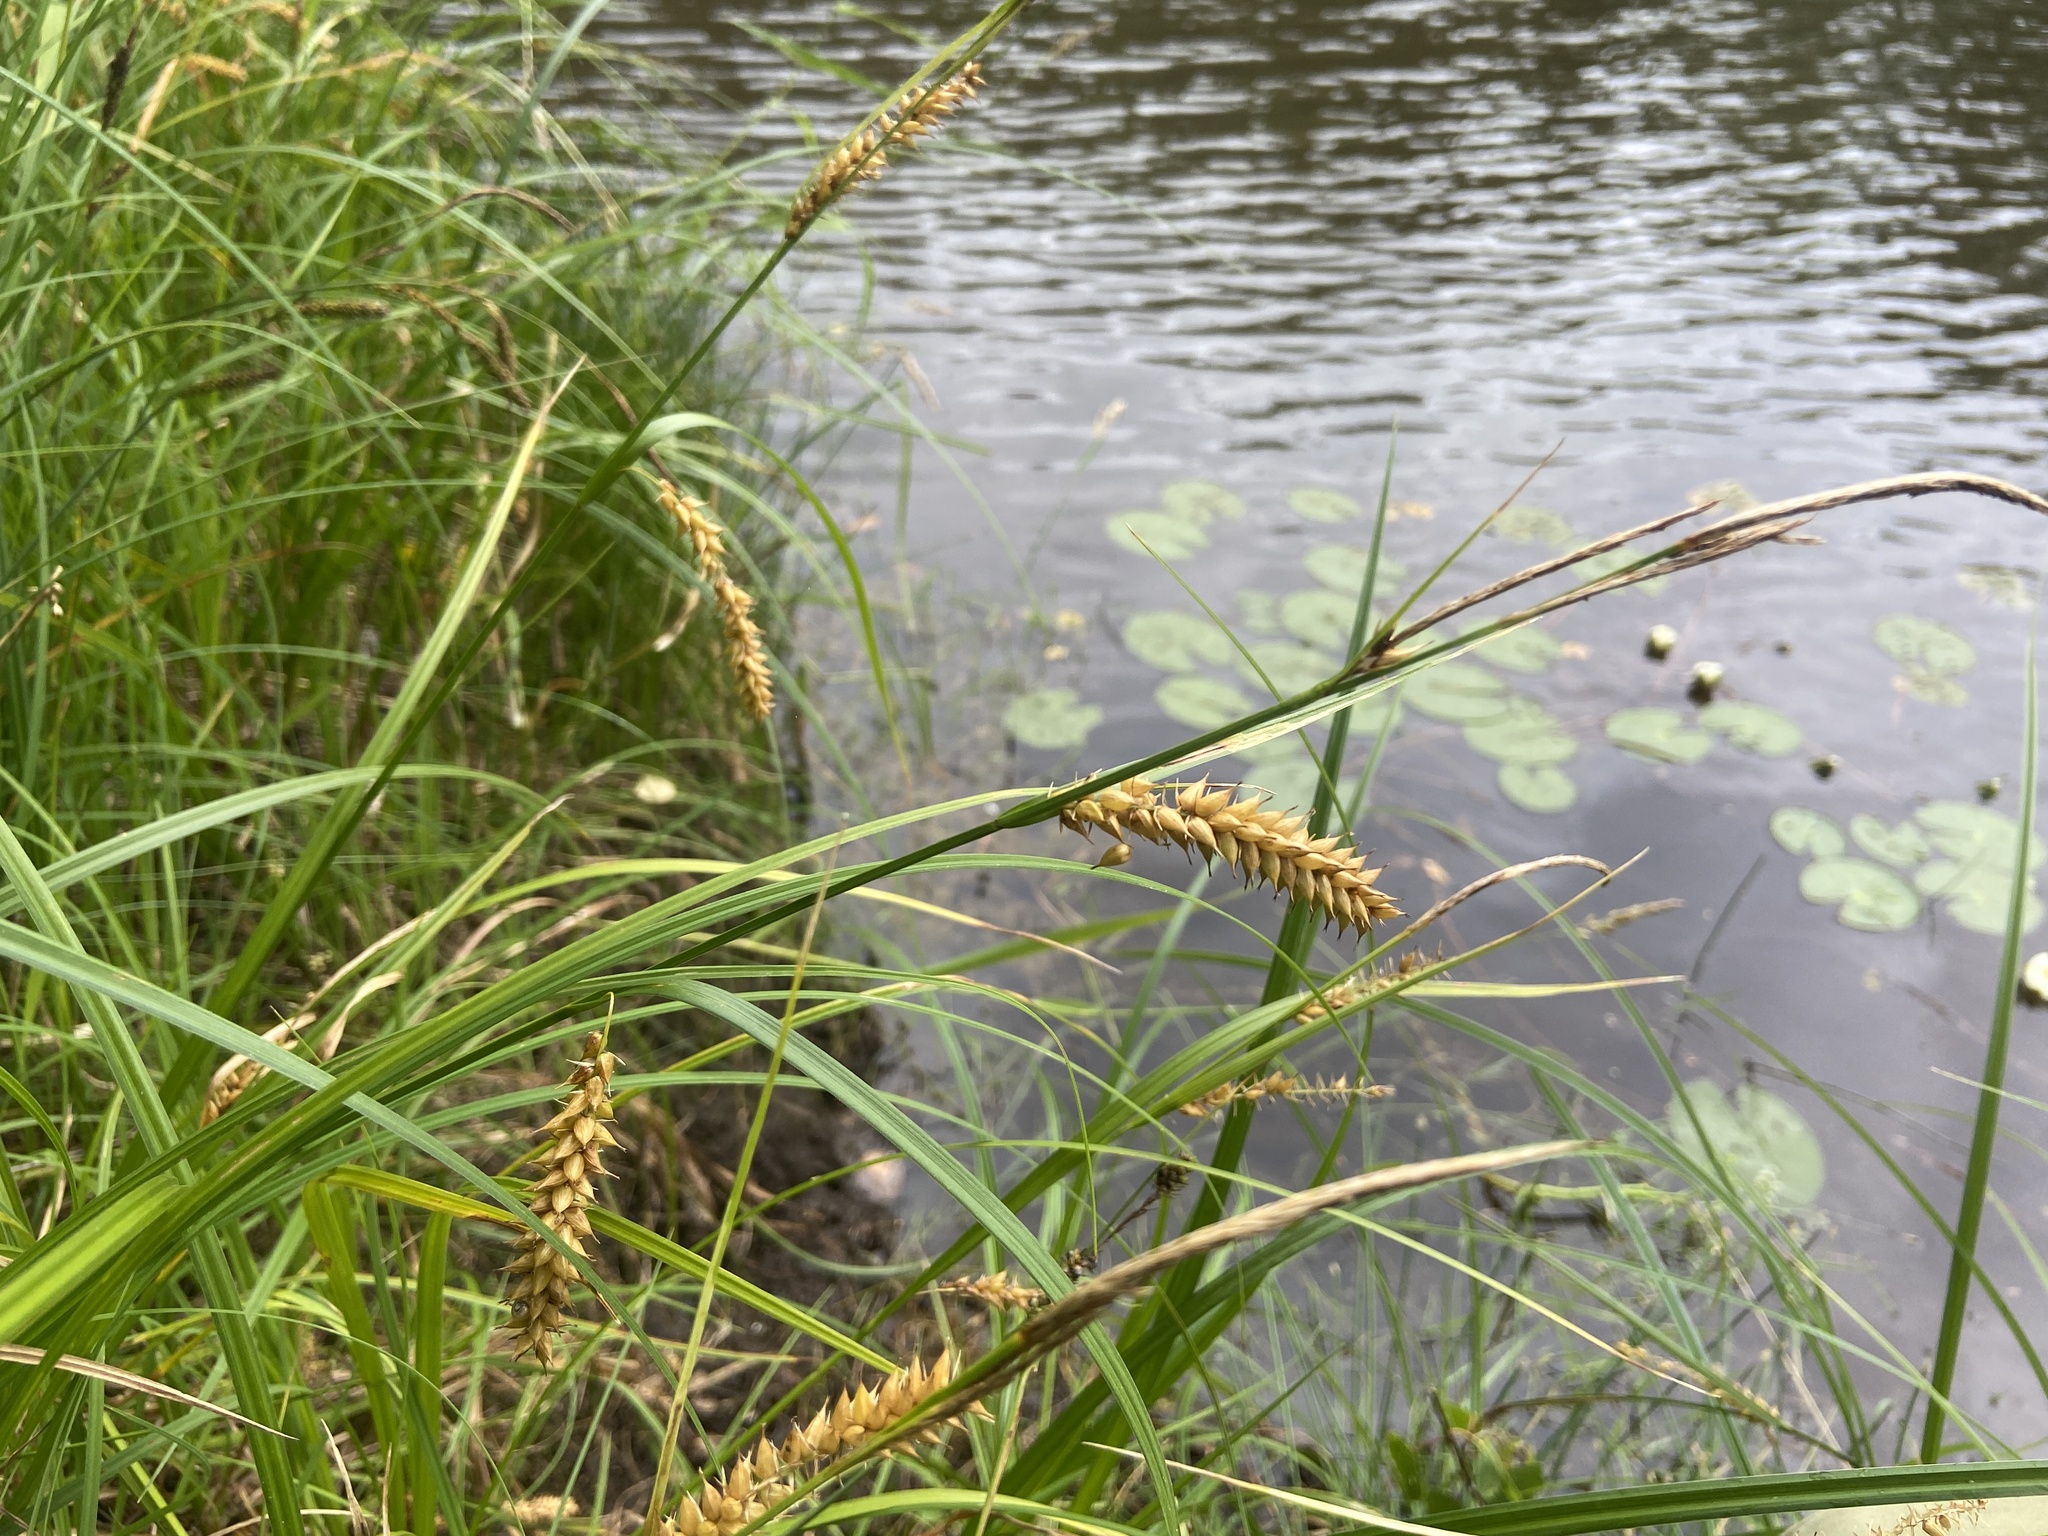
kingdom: Plantae
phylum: Tracheophyta
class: Liliopsida
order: Poales
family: Cyperaceae
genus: Carex
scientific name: Carex vesicaria
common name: Bladder-sedge
